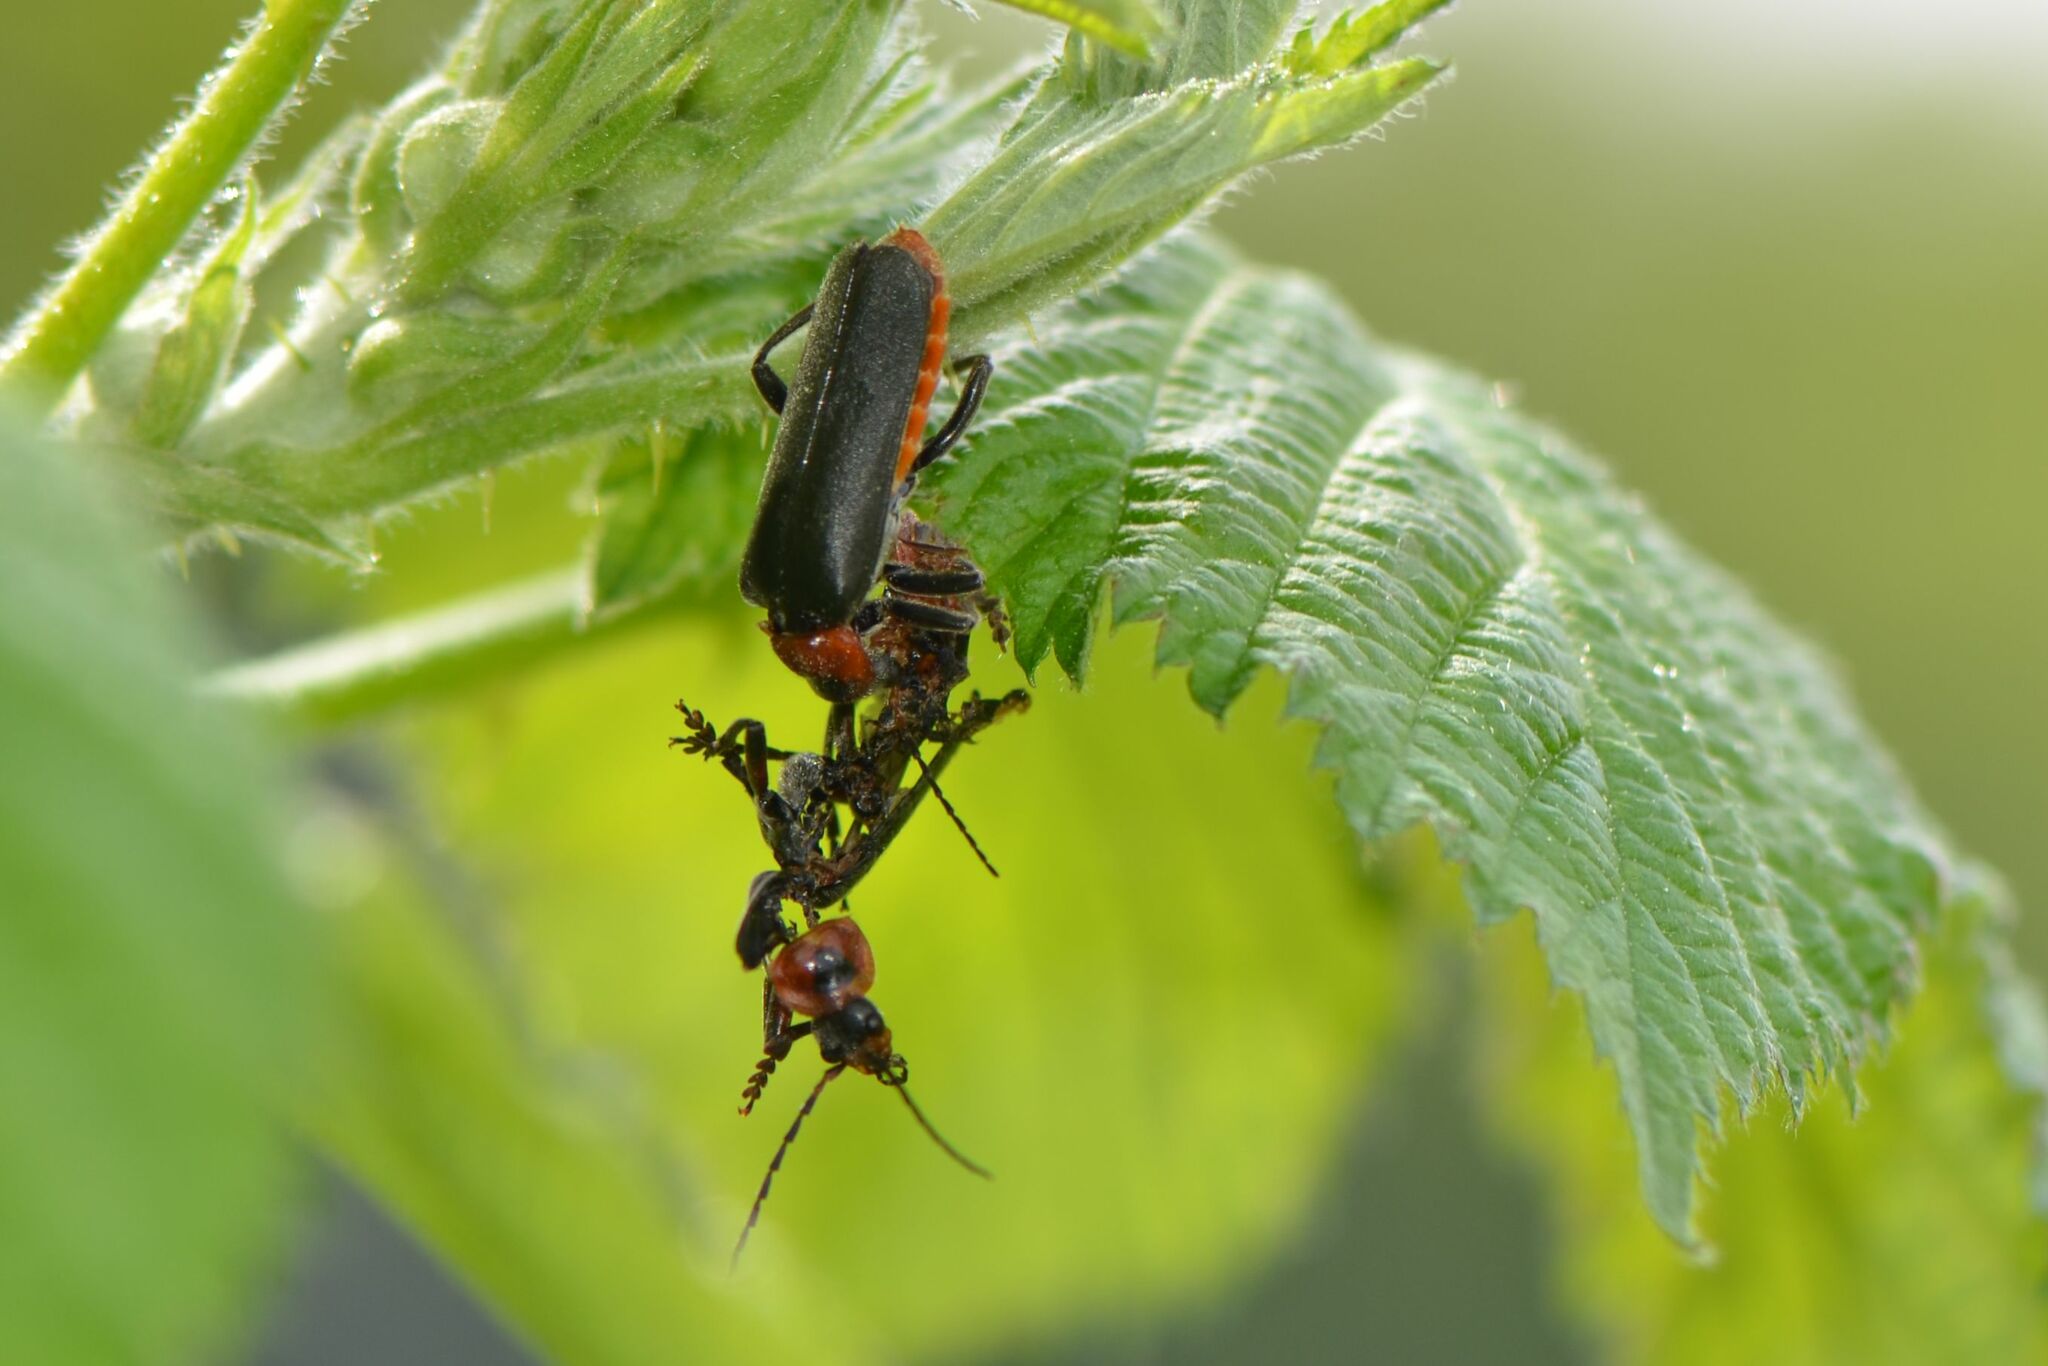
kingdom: Animalia
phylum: Arthropoda
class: Insecta
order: Coleoptera
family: Cantharidae
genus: Cantharis
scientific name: Cantharis fusca
